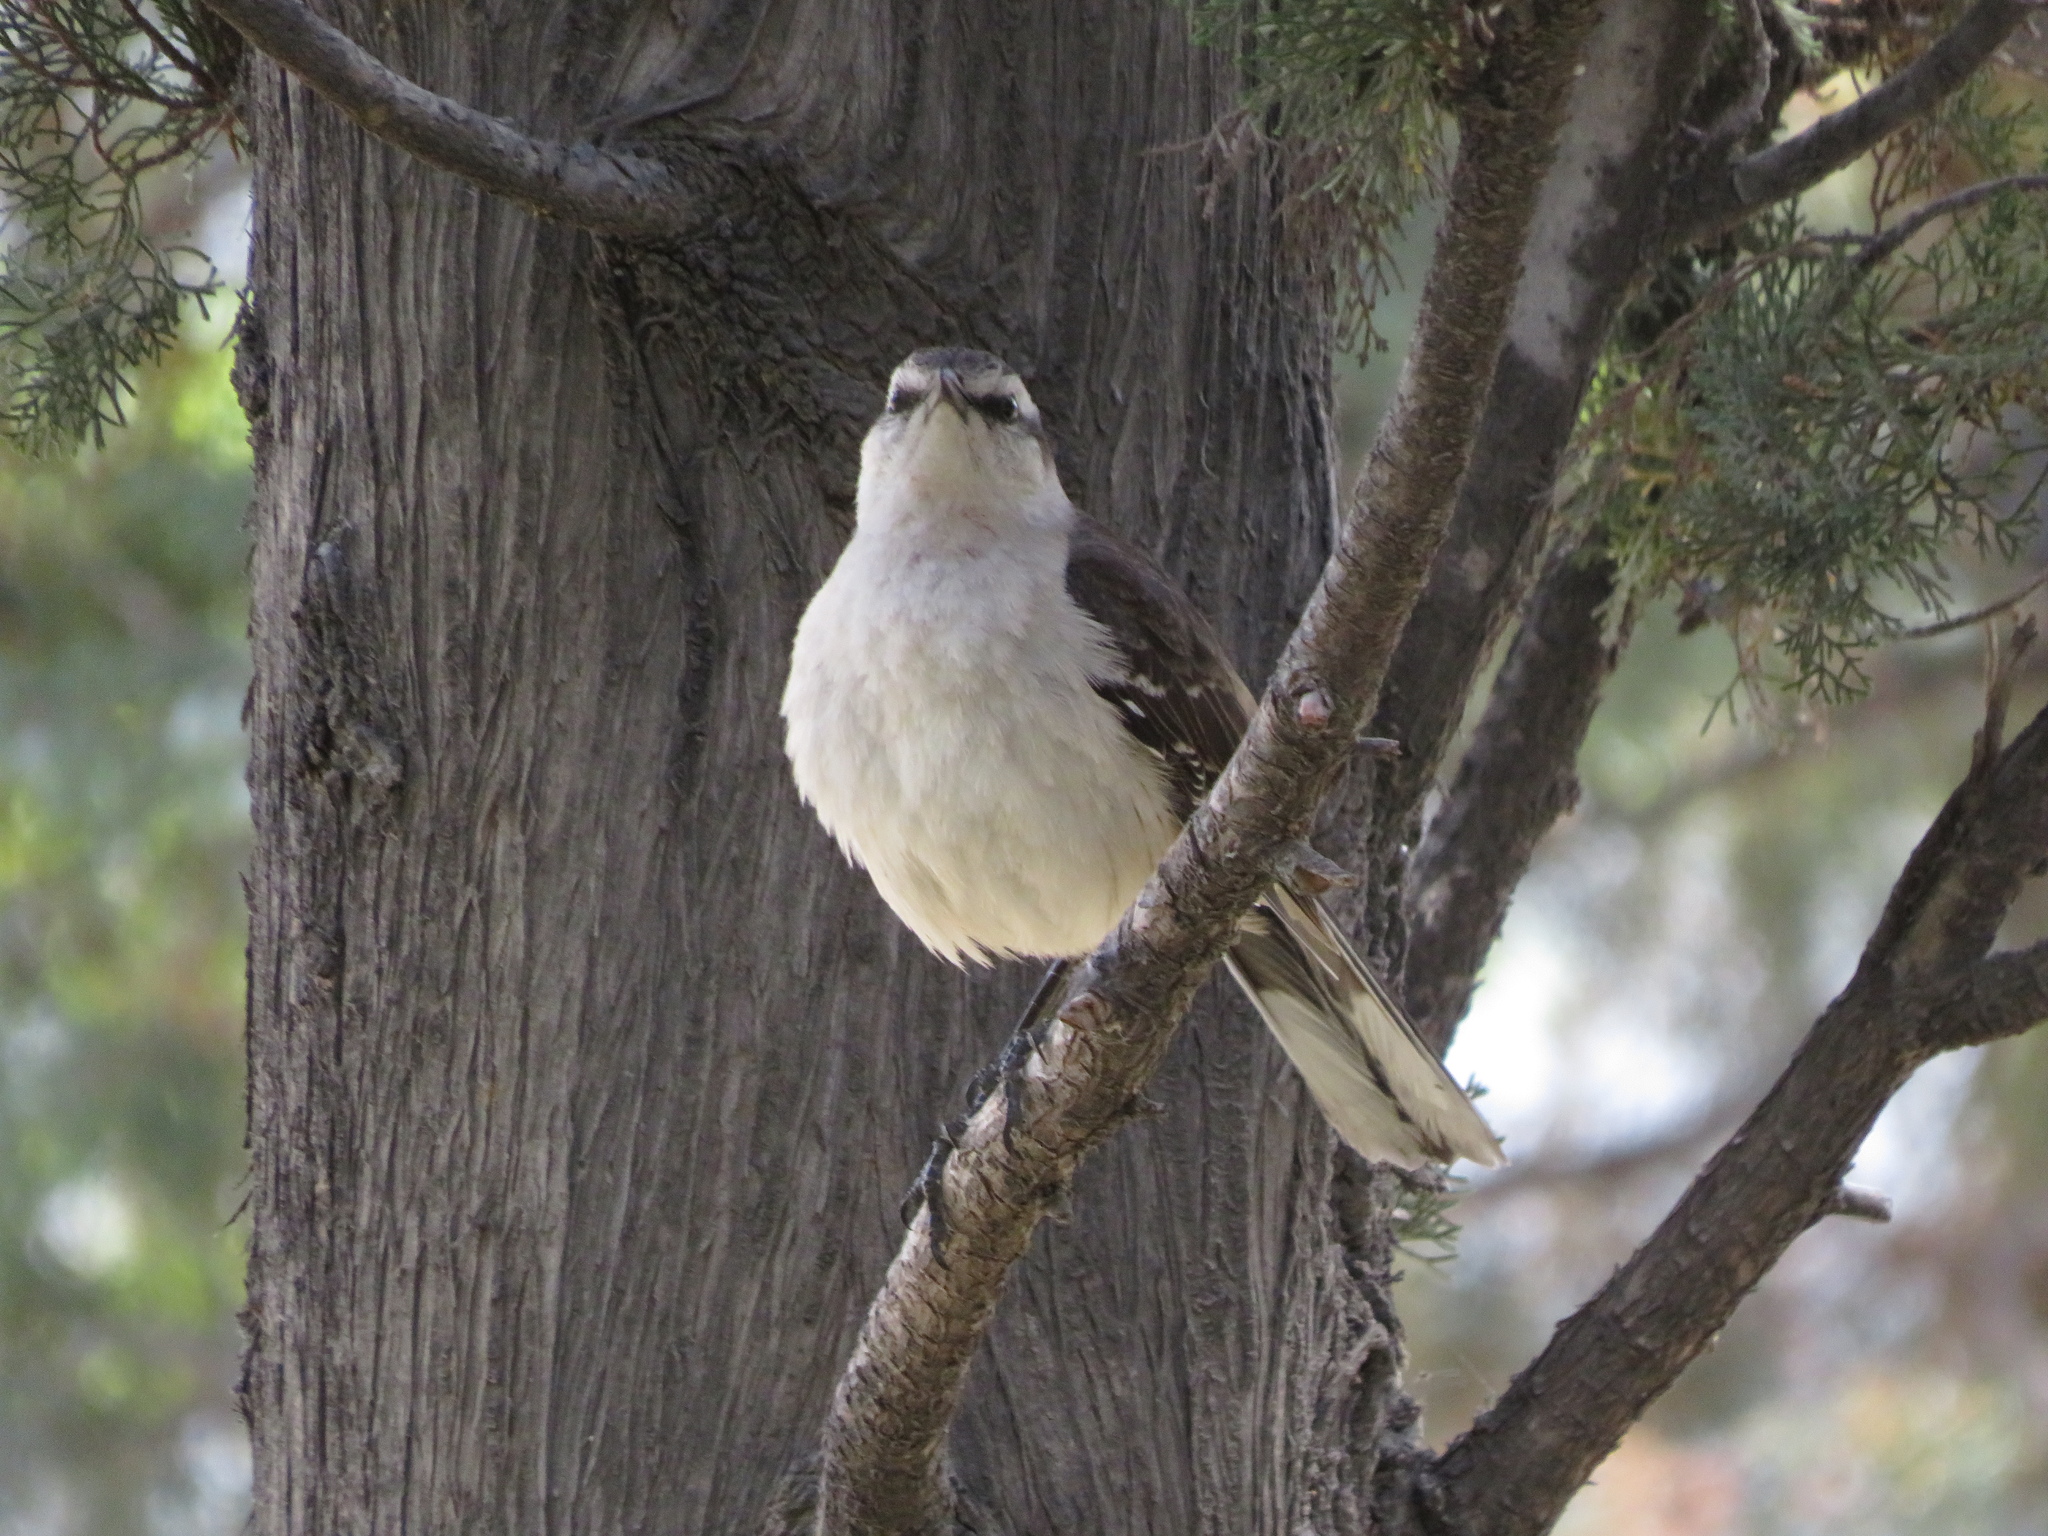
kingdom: Animalia
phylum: Chordata
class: Aves
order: Passeriformes
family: Mimidae
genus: Mimus
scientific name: Mimus saturninus
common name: Chalk-browed mockingbird
